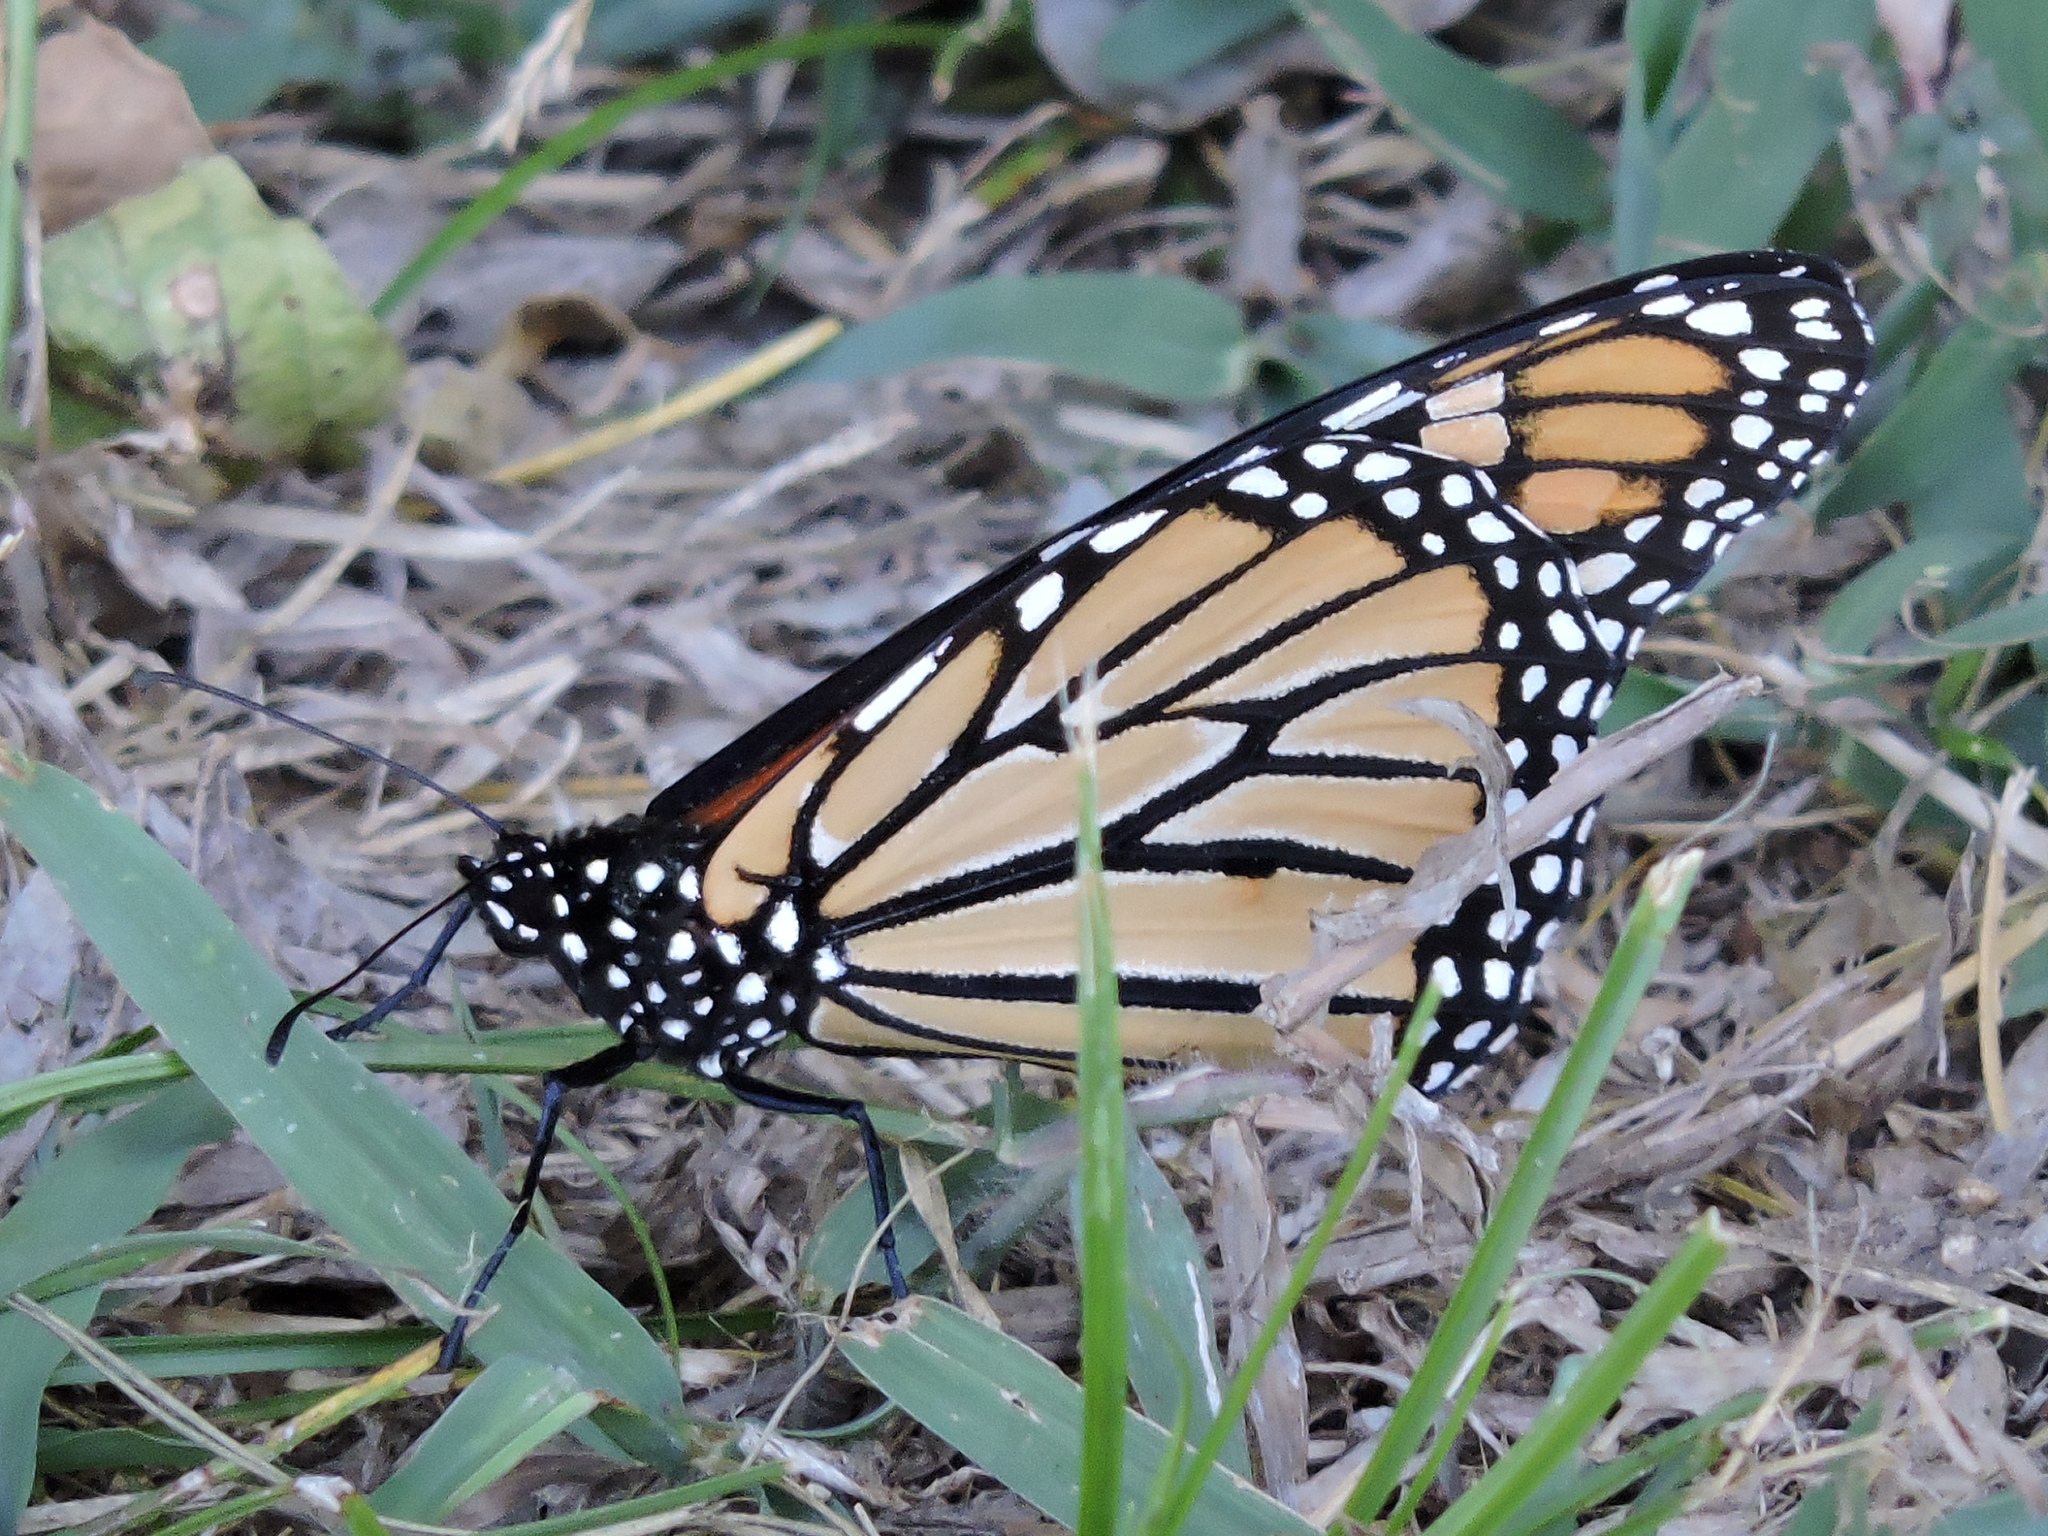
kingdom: Animalia
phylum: Arthropoda
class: Insecta
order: Lepidoptera
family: Nymphalidae
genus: Danaus
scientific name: Danaus plexippus
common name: Monarch
